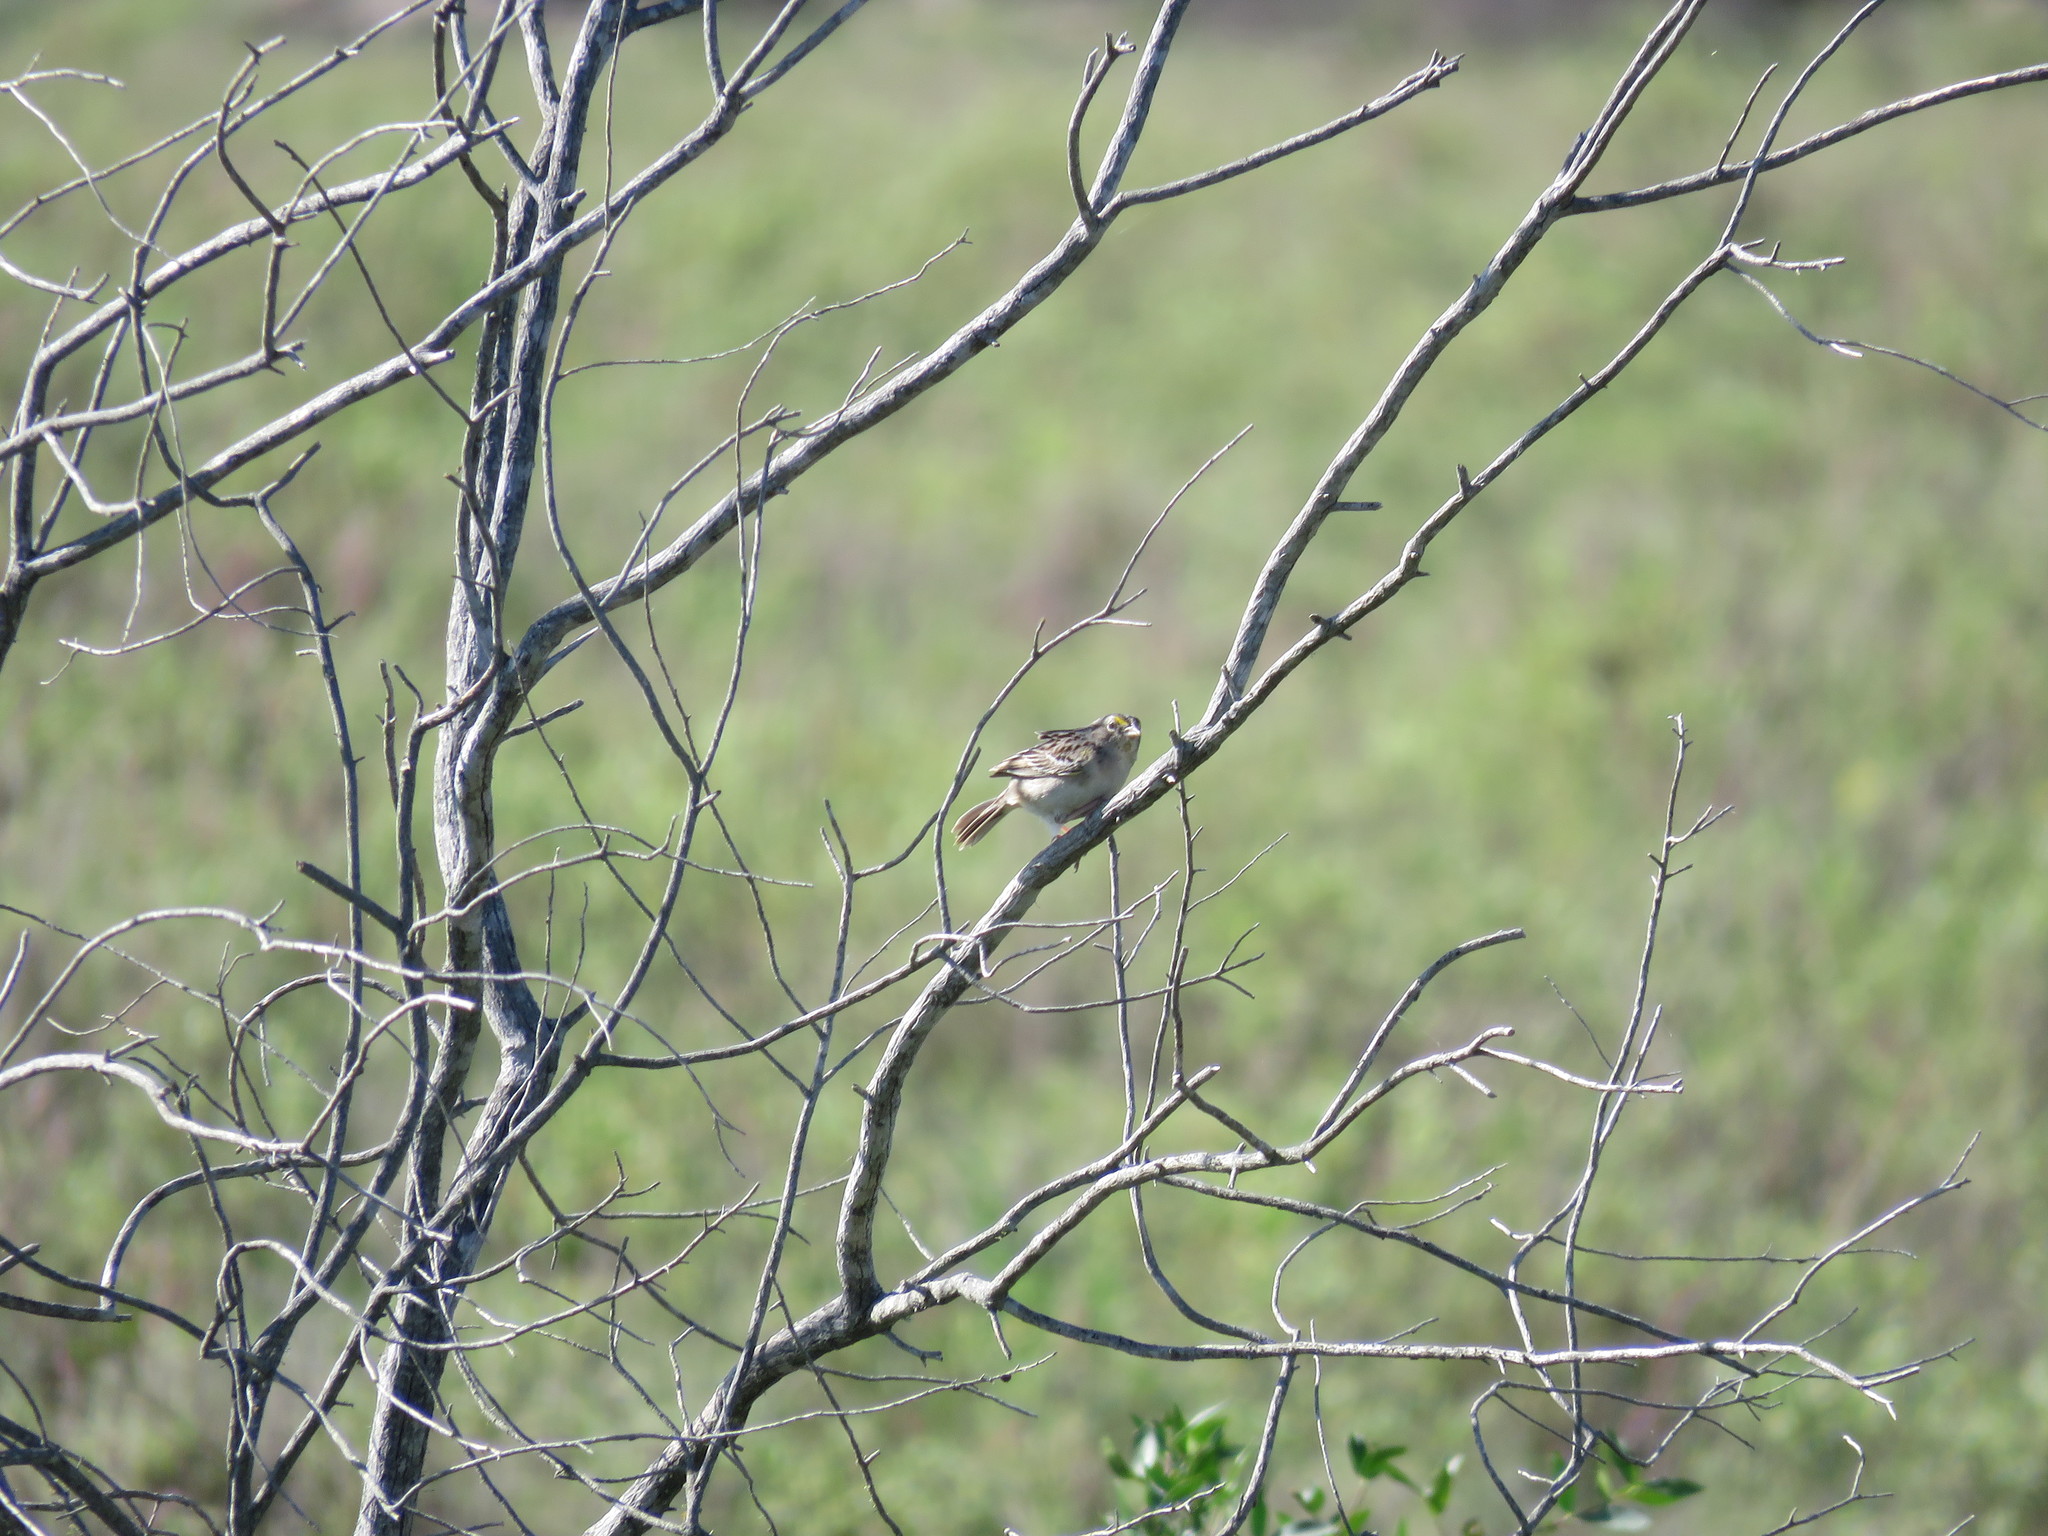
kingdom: Animalia
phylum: Chordata
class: Aves
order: Passeriformes
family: Passerellidae
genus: Ammodramus
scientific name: Ammodramus humeralis
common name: Grassland sparrow
